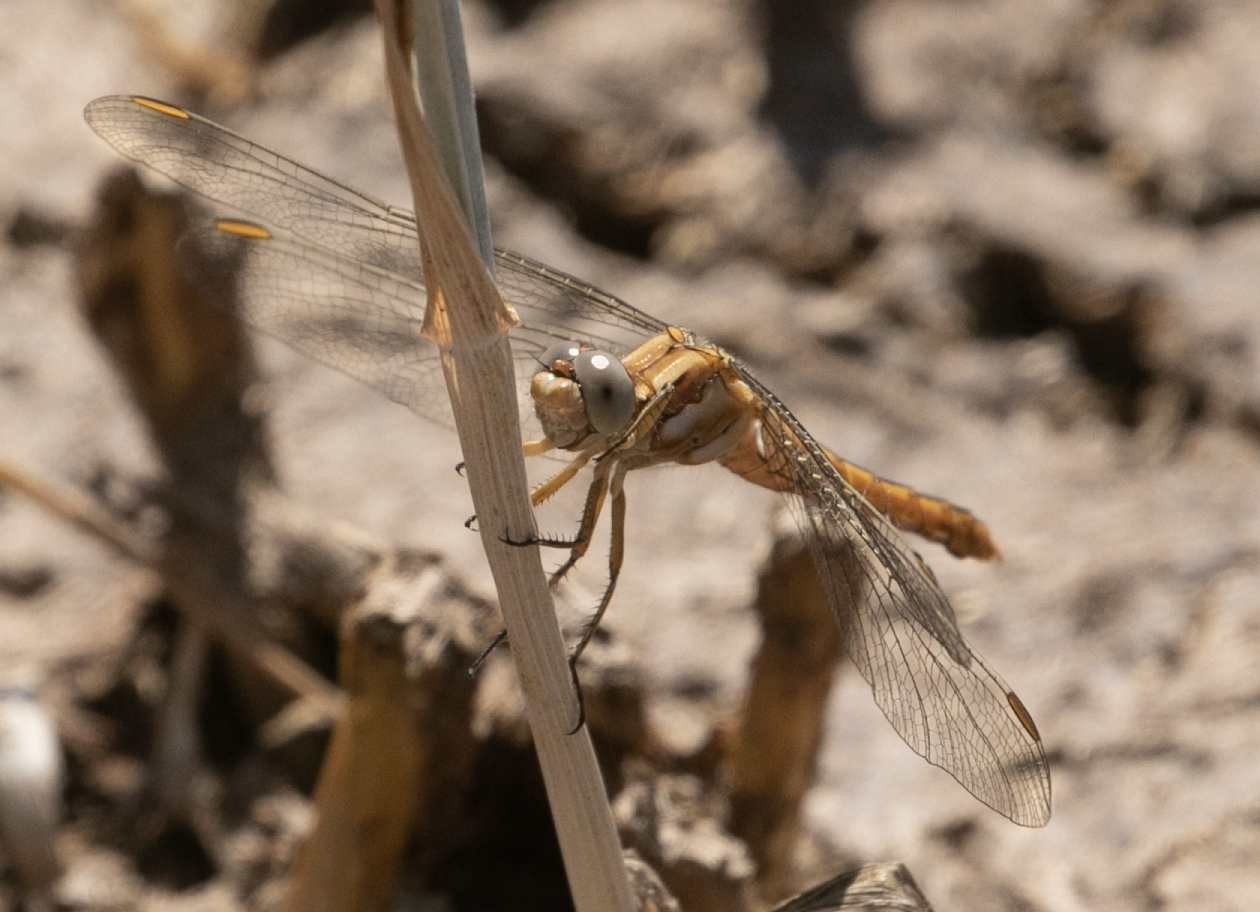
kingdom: Animalia
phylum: Arthropoda
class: Insecta
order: Odonata
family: Libellulidae
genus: Orthetrum
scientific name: Orthetrum brunneum
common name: Southern skimmer
